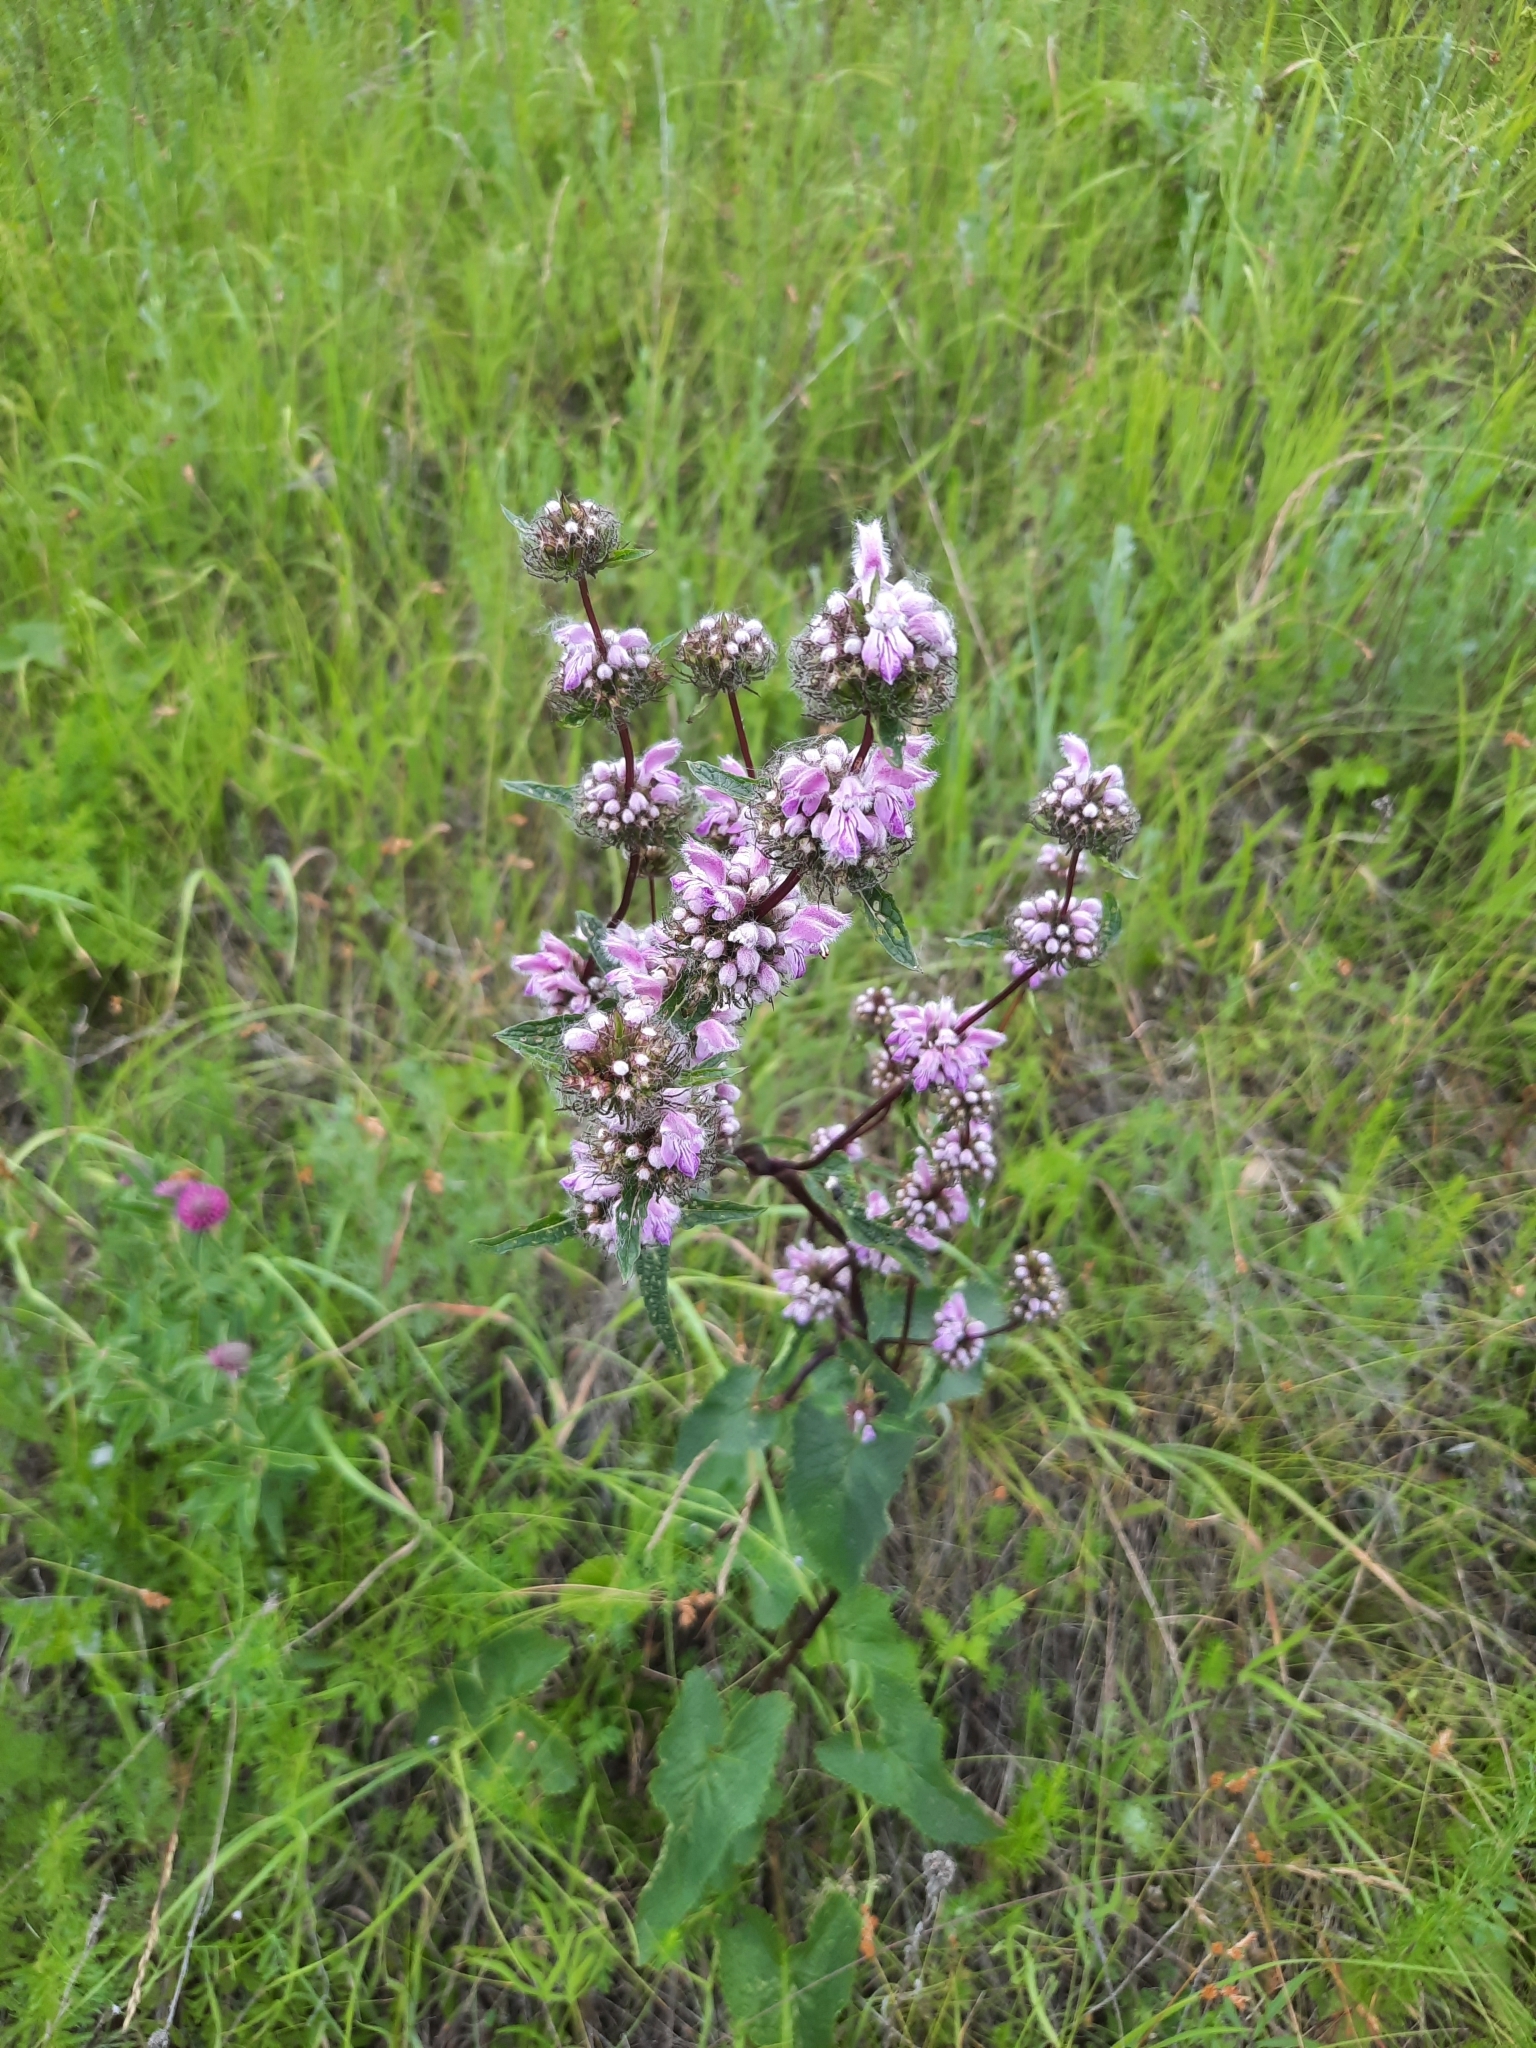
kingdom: Plantae
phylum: Tracheophyta
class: Magnoliopsida
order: Lamiales
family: Lamiaceae
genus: Phlomoides
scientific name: Phlomoides tuberosa
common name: Tuberous jerusalem sage
